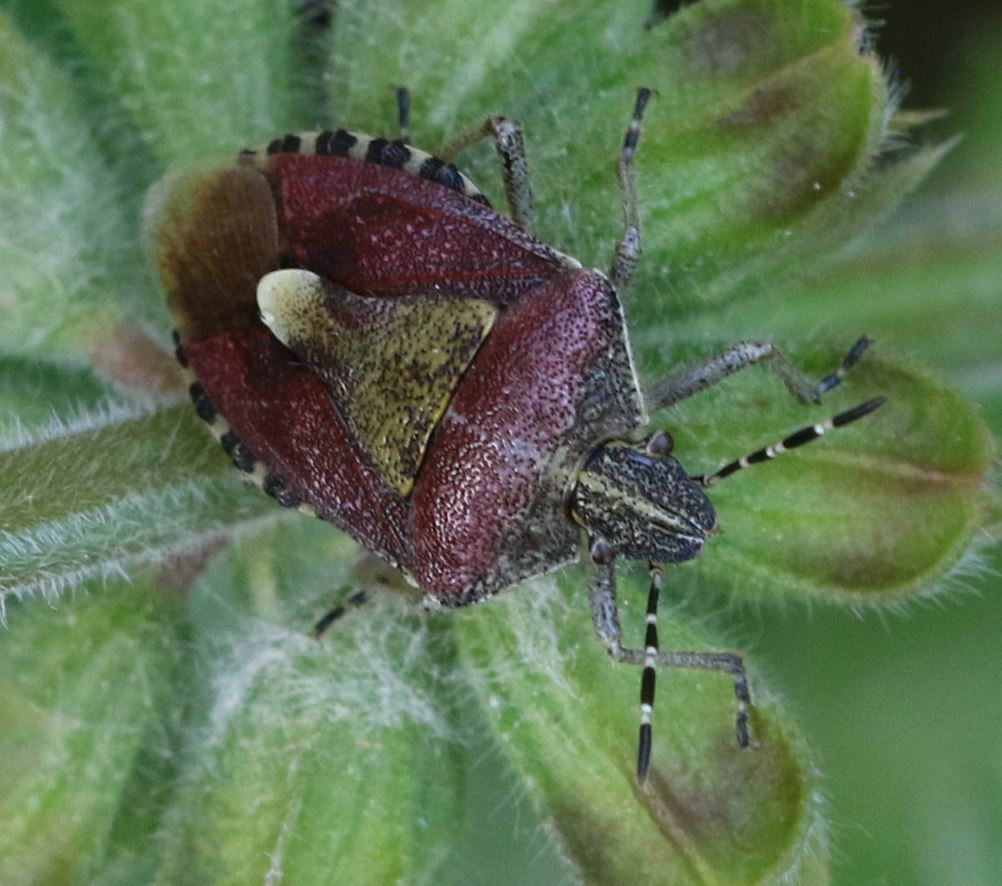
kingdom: Animalia
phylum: Arthropoda
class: Insecta
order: Hemiptera
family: Pentatomidae
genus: Dolycoris
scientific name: Dolycoris baccarum
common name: Sloe bug
